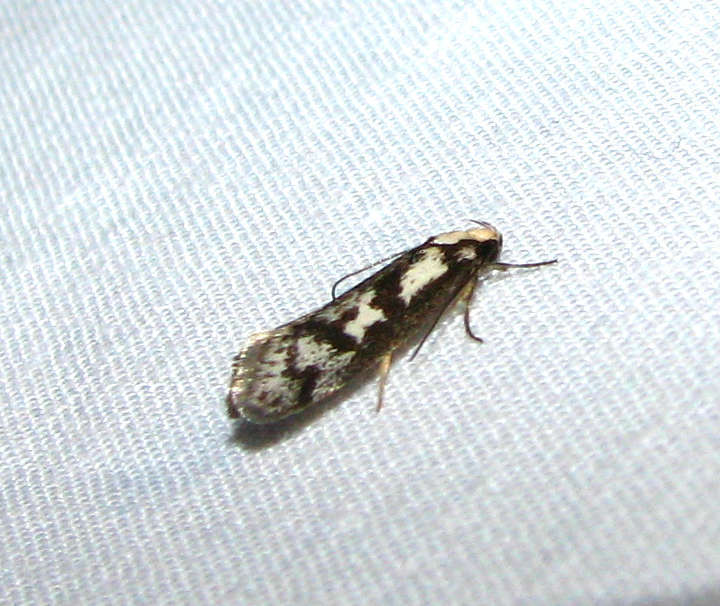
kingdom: Animalia
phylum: Arthropoda
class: Insecta
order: Lepidoptera
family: Oecophoridae
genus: Eusemocosma
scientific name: Eusemocosma pruinosa
